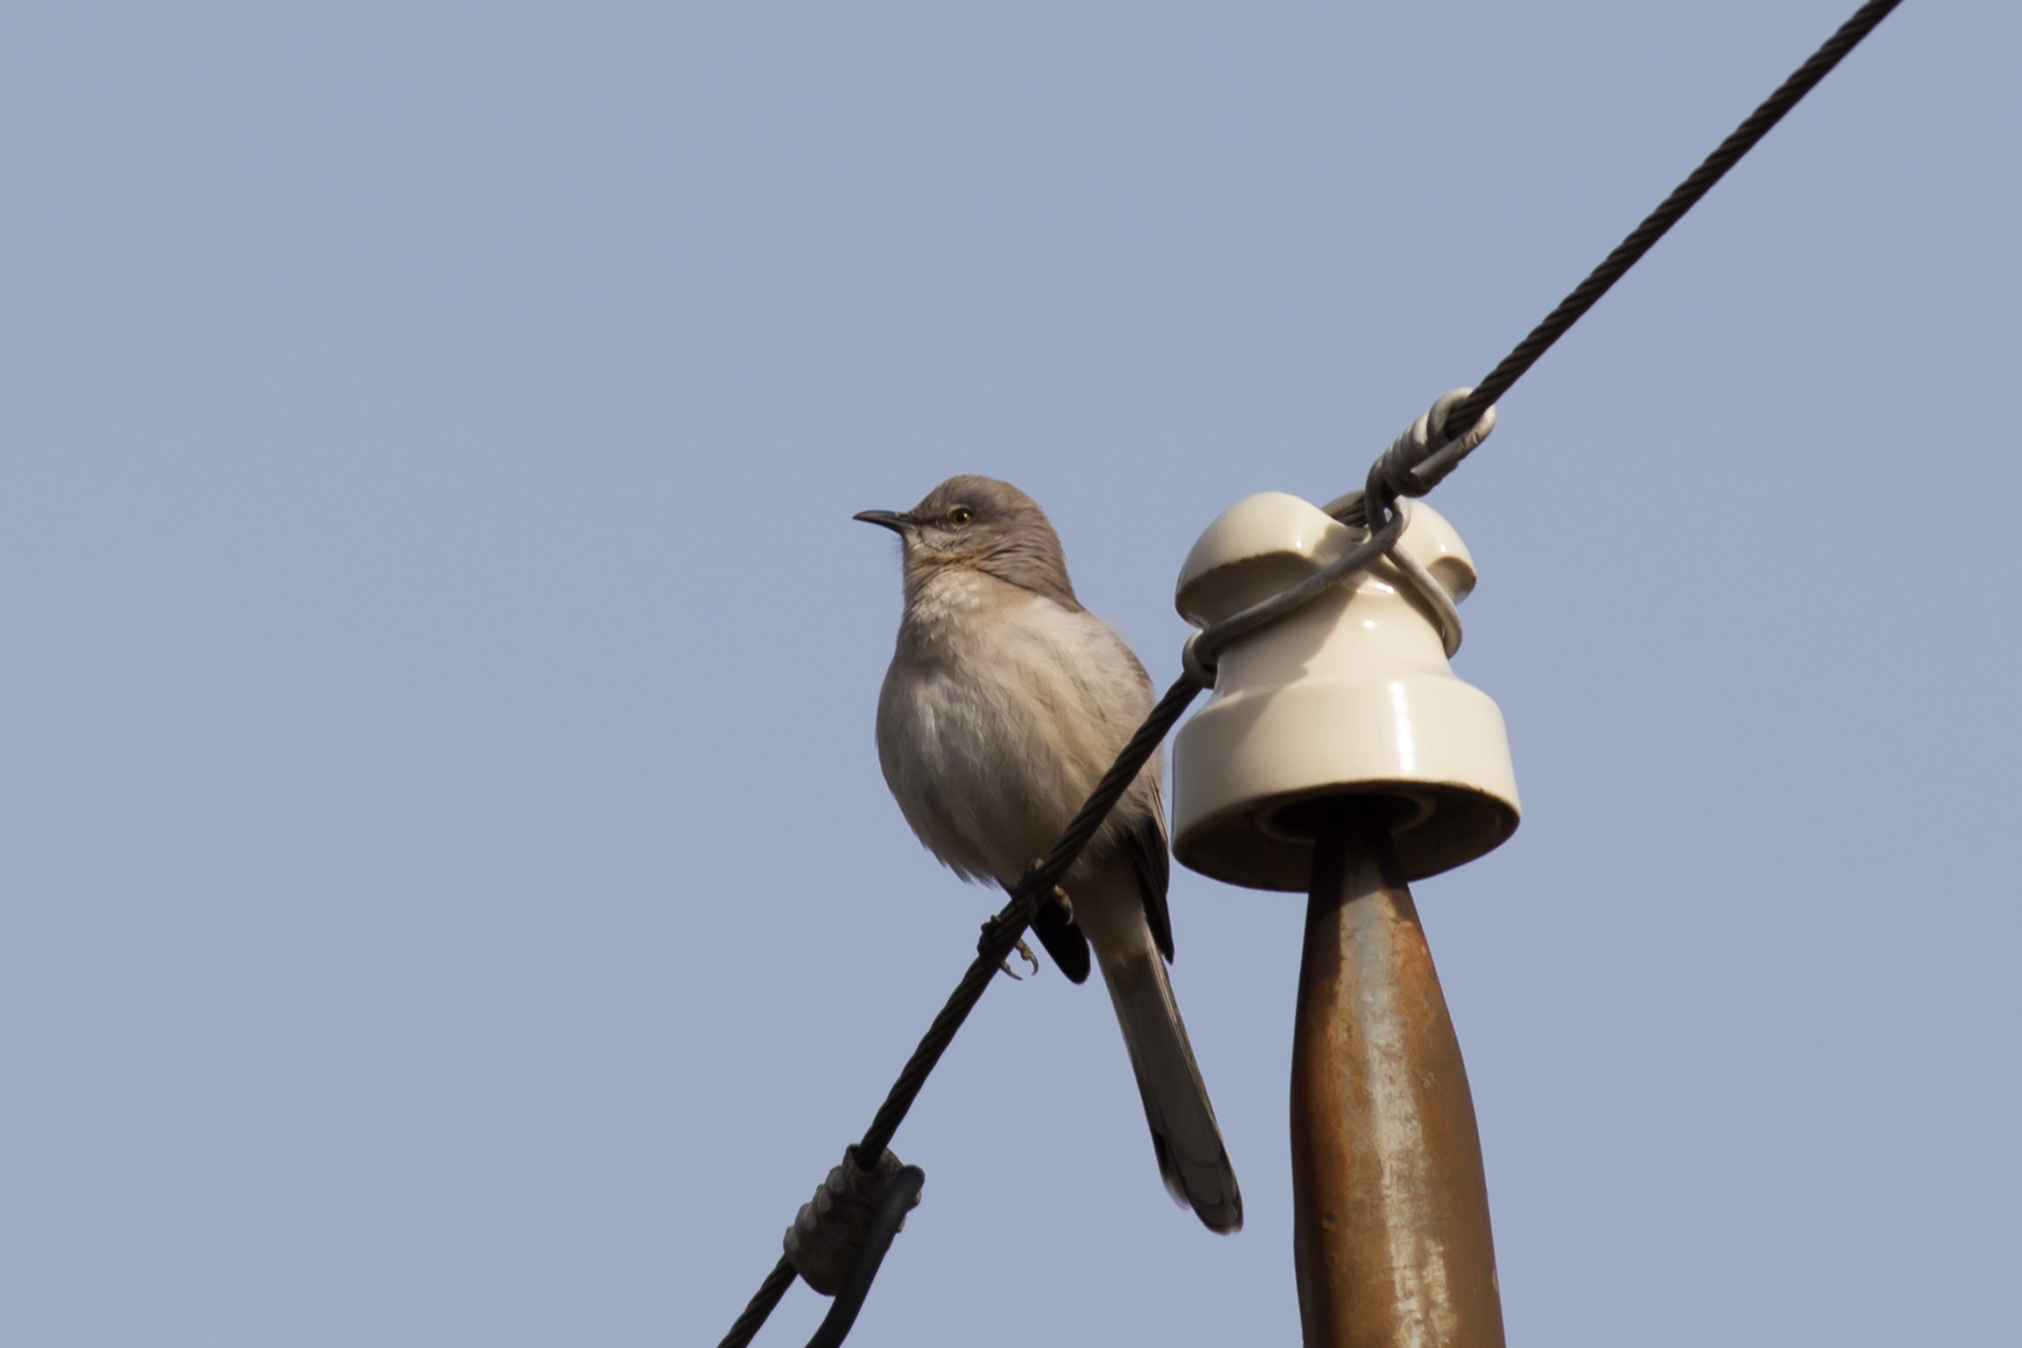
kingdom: Animalia
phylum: Chordata
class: Aves
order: Passeriformes
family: Mimidae
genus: Mimus
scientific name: Mimus polyglottos
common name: Northern mockingbird
